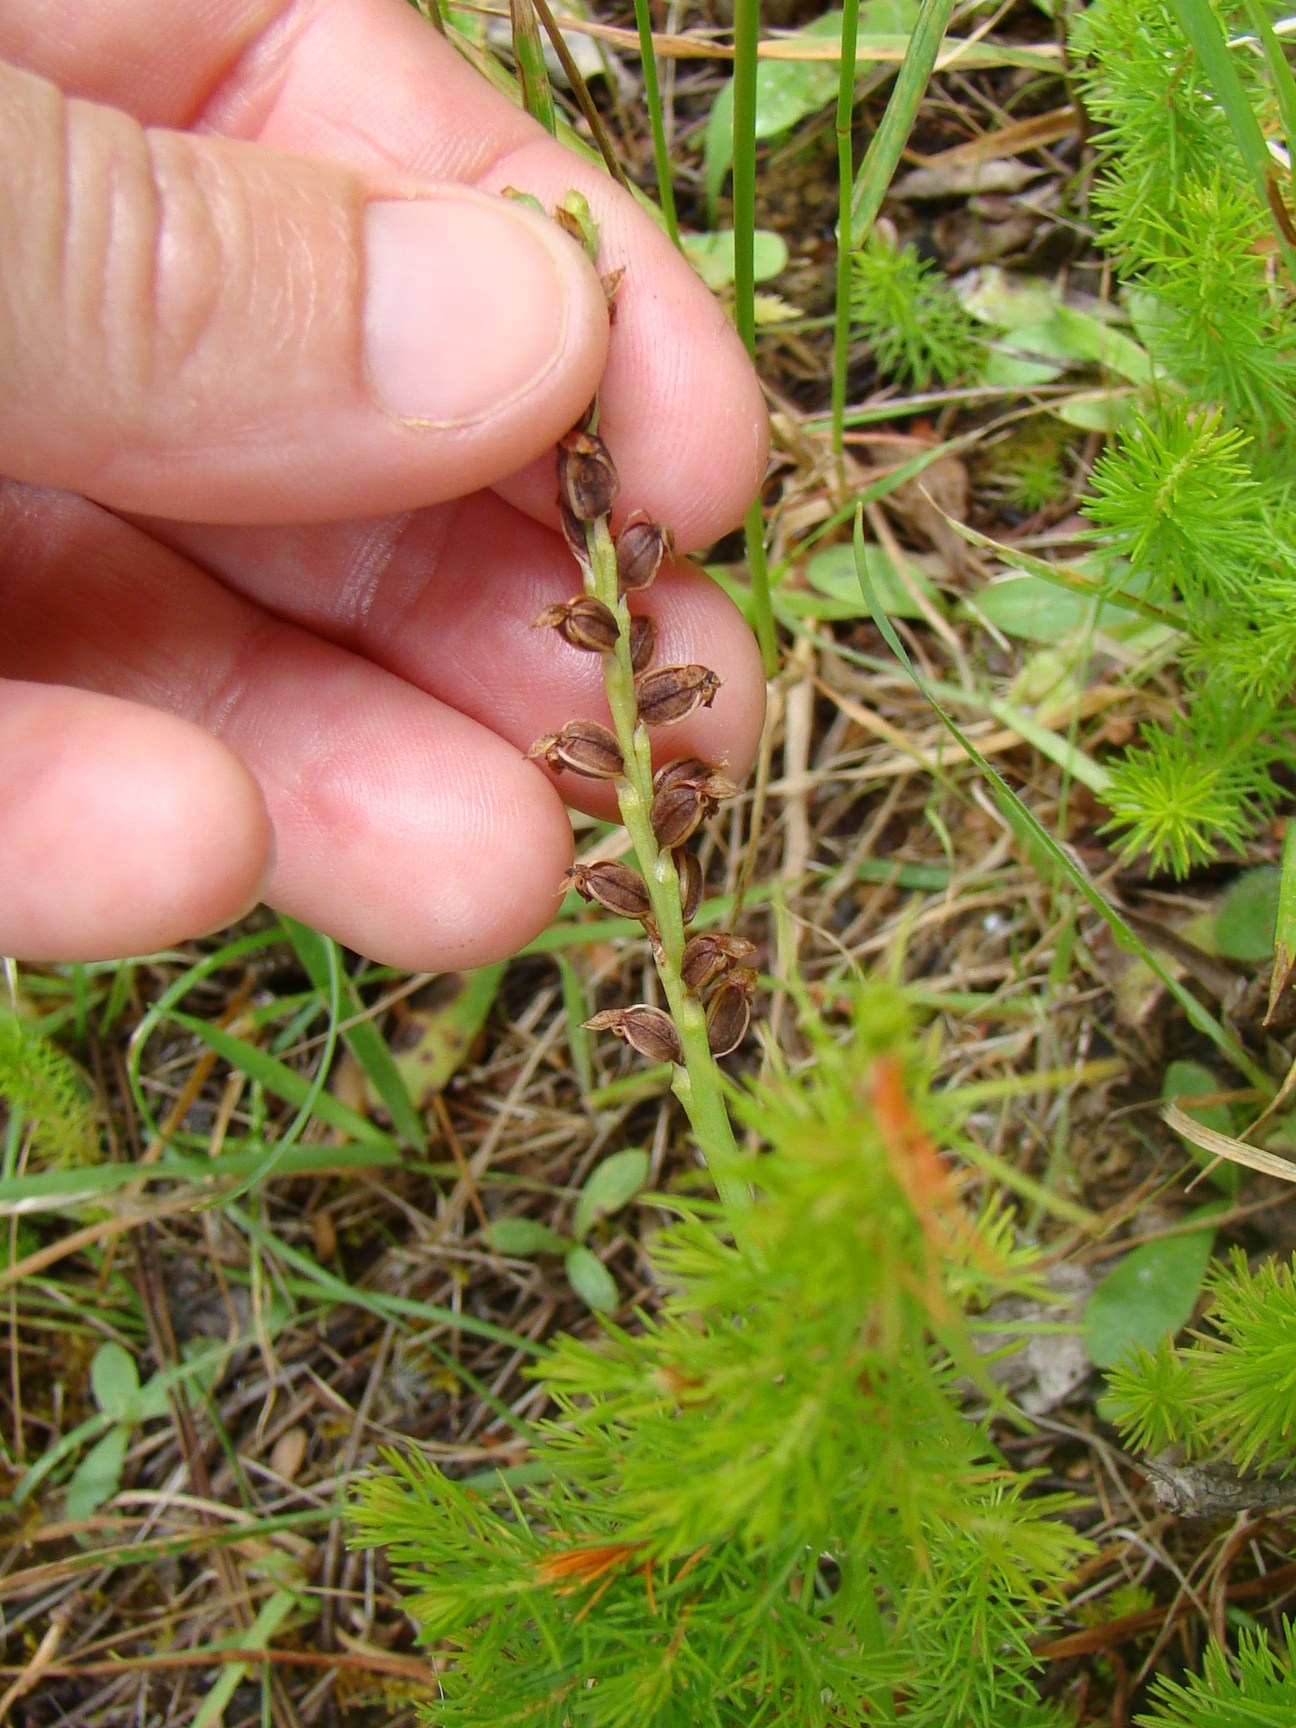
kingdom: Plantae
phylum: Tracheophyta
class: Liliopsida
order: Asparagales
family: Orchidaceae
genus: Microtis
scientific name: Microtis unifolia
